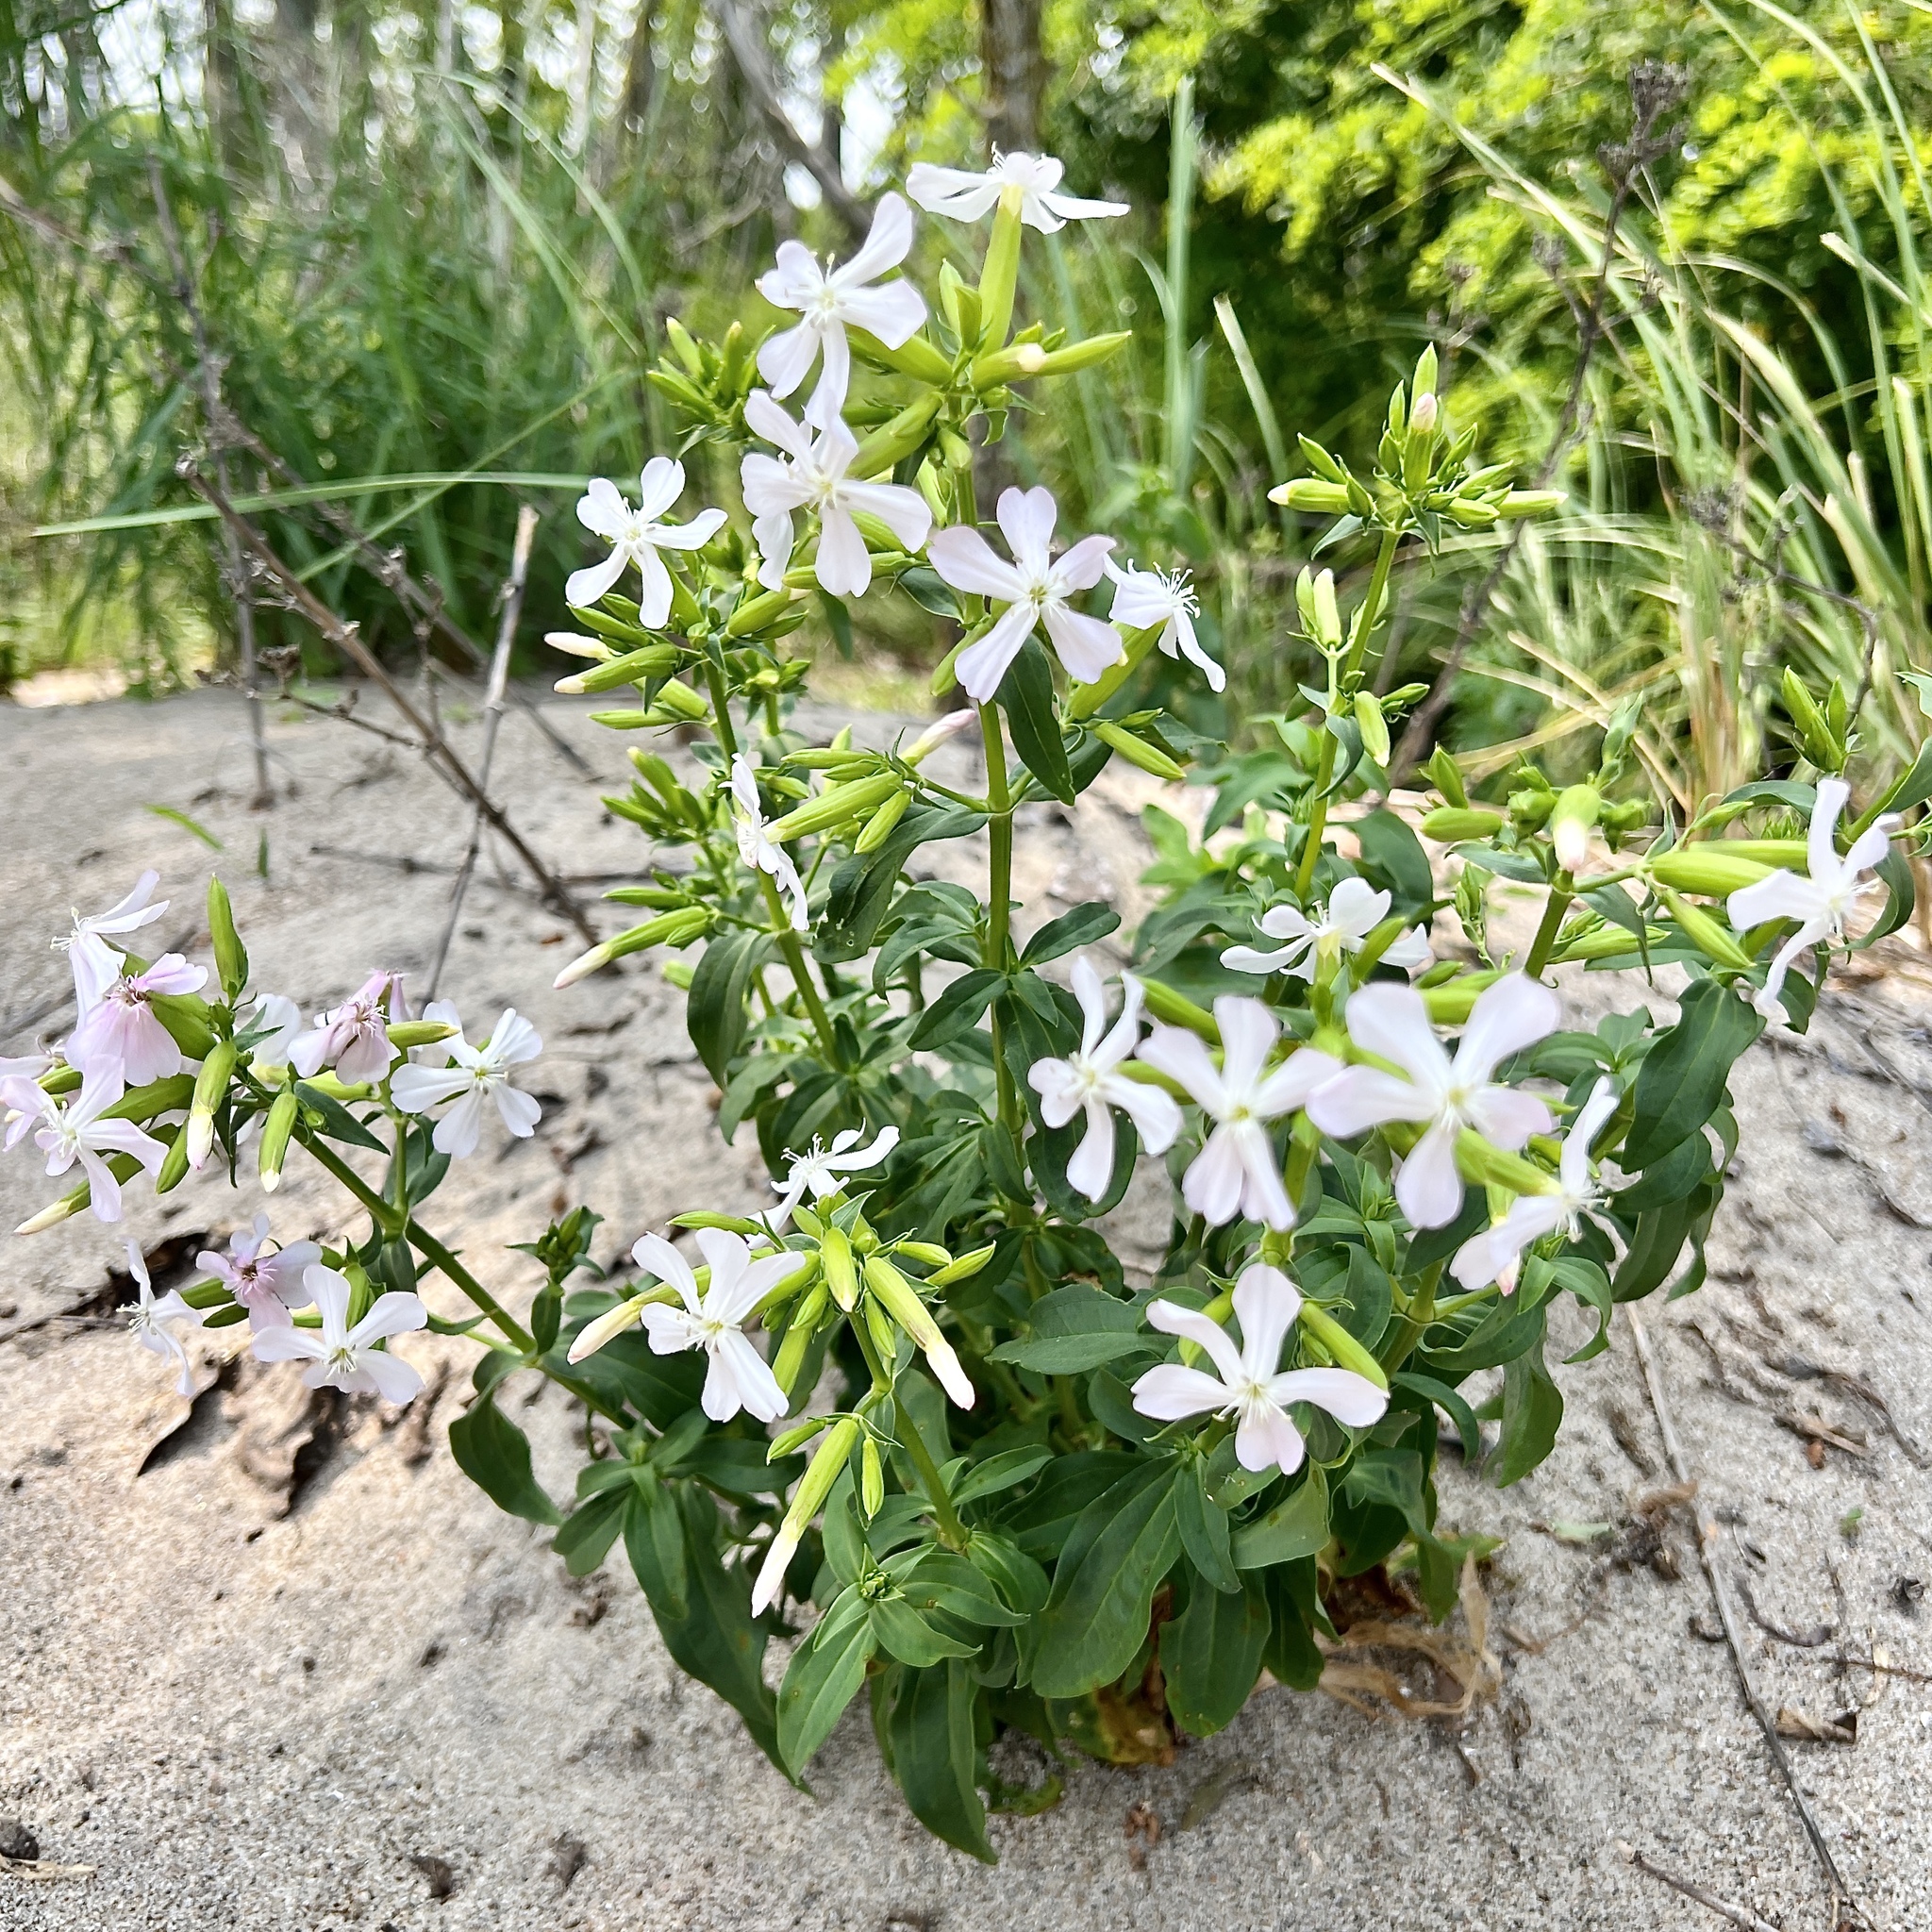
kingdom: Plantae
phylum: Tracheophyta
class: Magnoliopsida
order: Caryophyllales
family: Caryophyllaceae
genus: Saponaria
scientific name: Saponaria officinalis
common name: Soapwort
